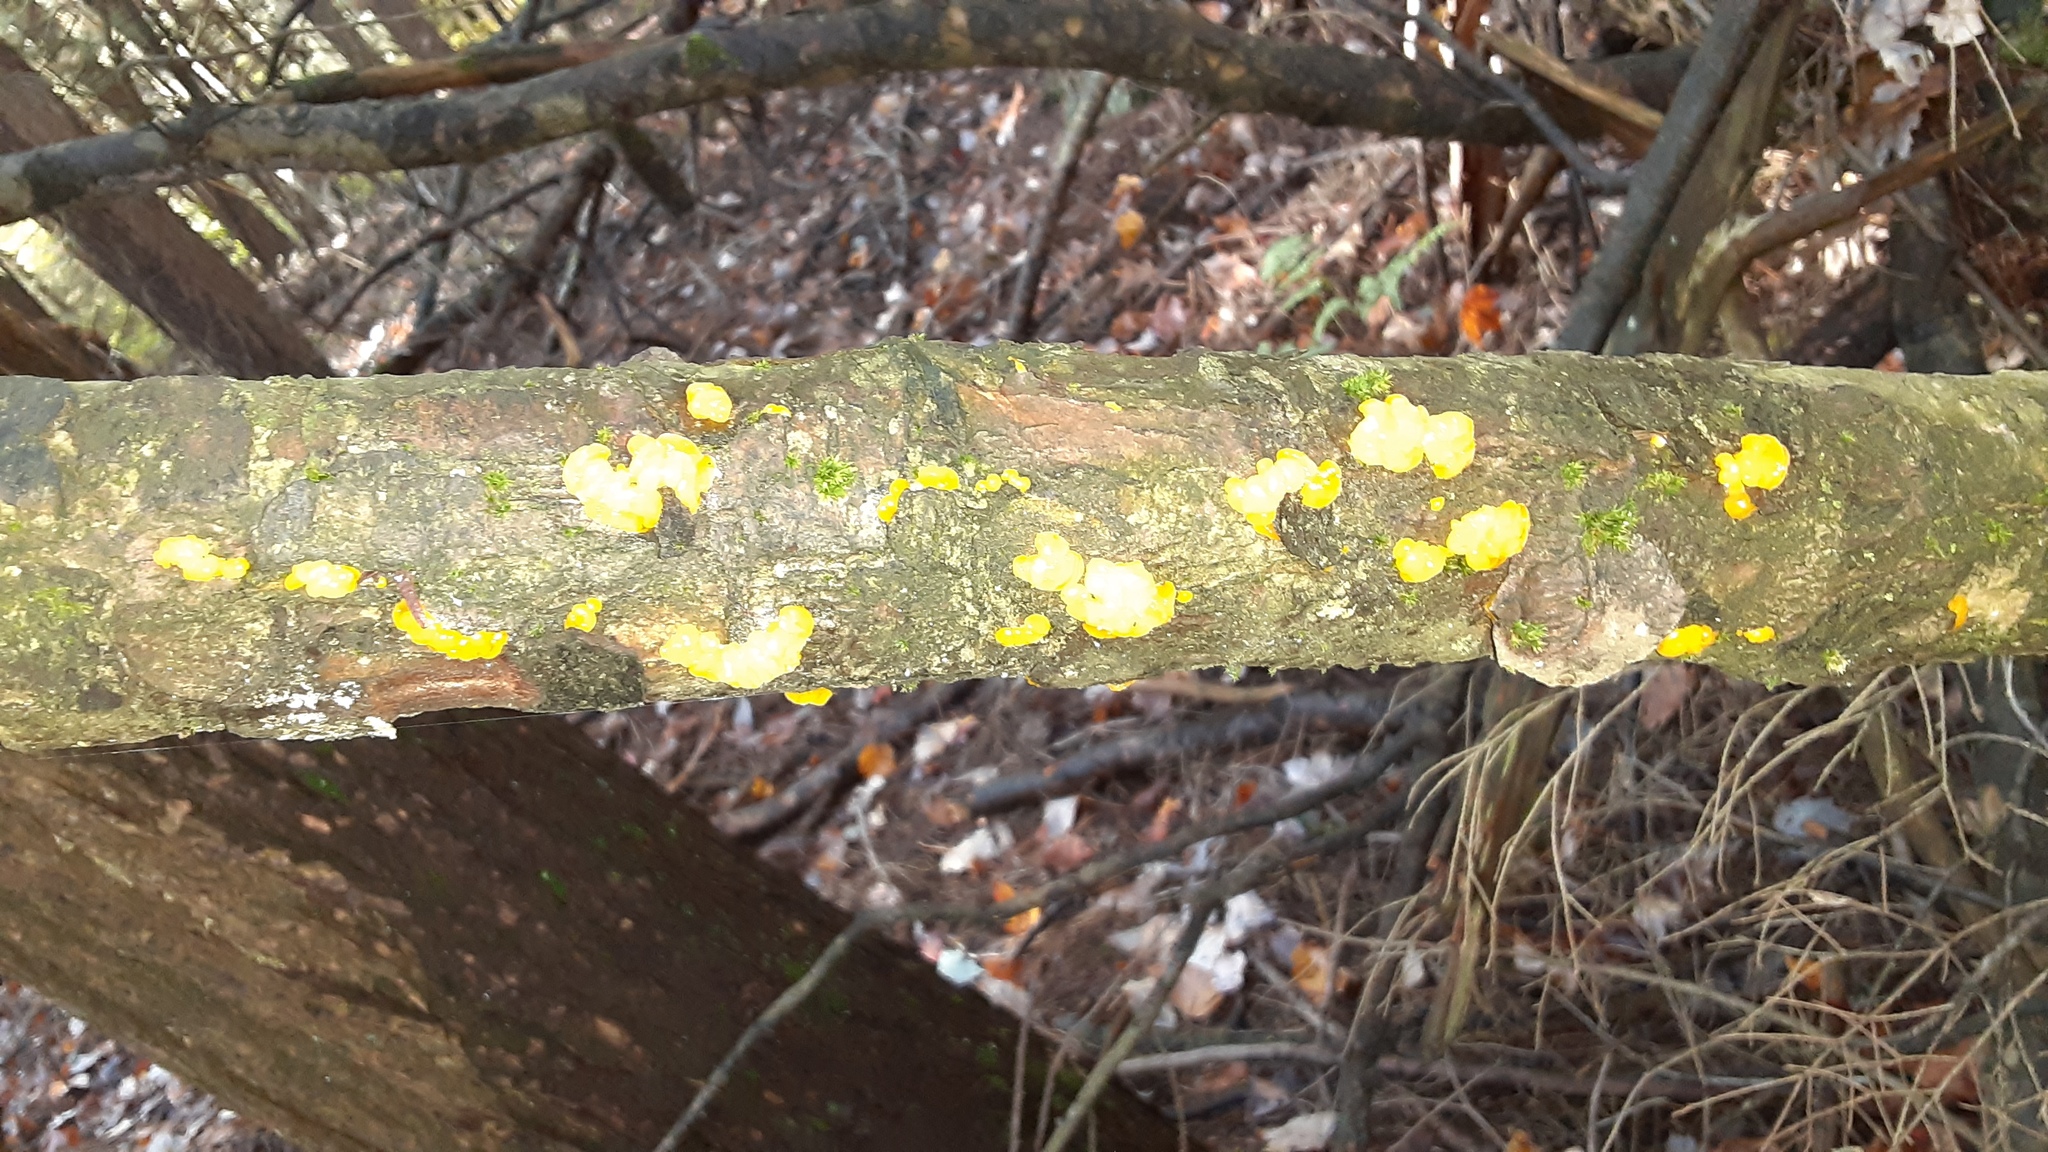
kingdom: Fungi
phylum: Basidiomycota
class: Dacrymycetes
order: Dacrymycetales
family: Dacrymycetaceae
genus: Dacrymyces
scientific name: Dacrymyces chrysospermus
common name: Orange jelly spot
